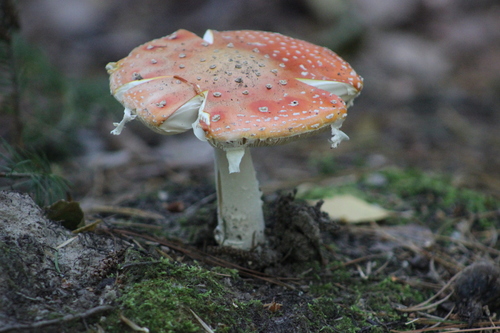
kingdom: Fungi
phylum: Basidiomycota
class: Agaricomycetes
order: Agaricales
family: Amanitaceae
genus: Amanita
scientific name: Amanita muscaria
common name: Fly agaric
